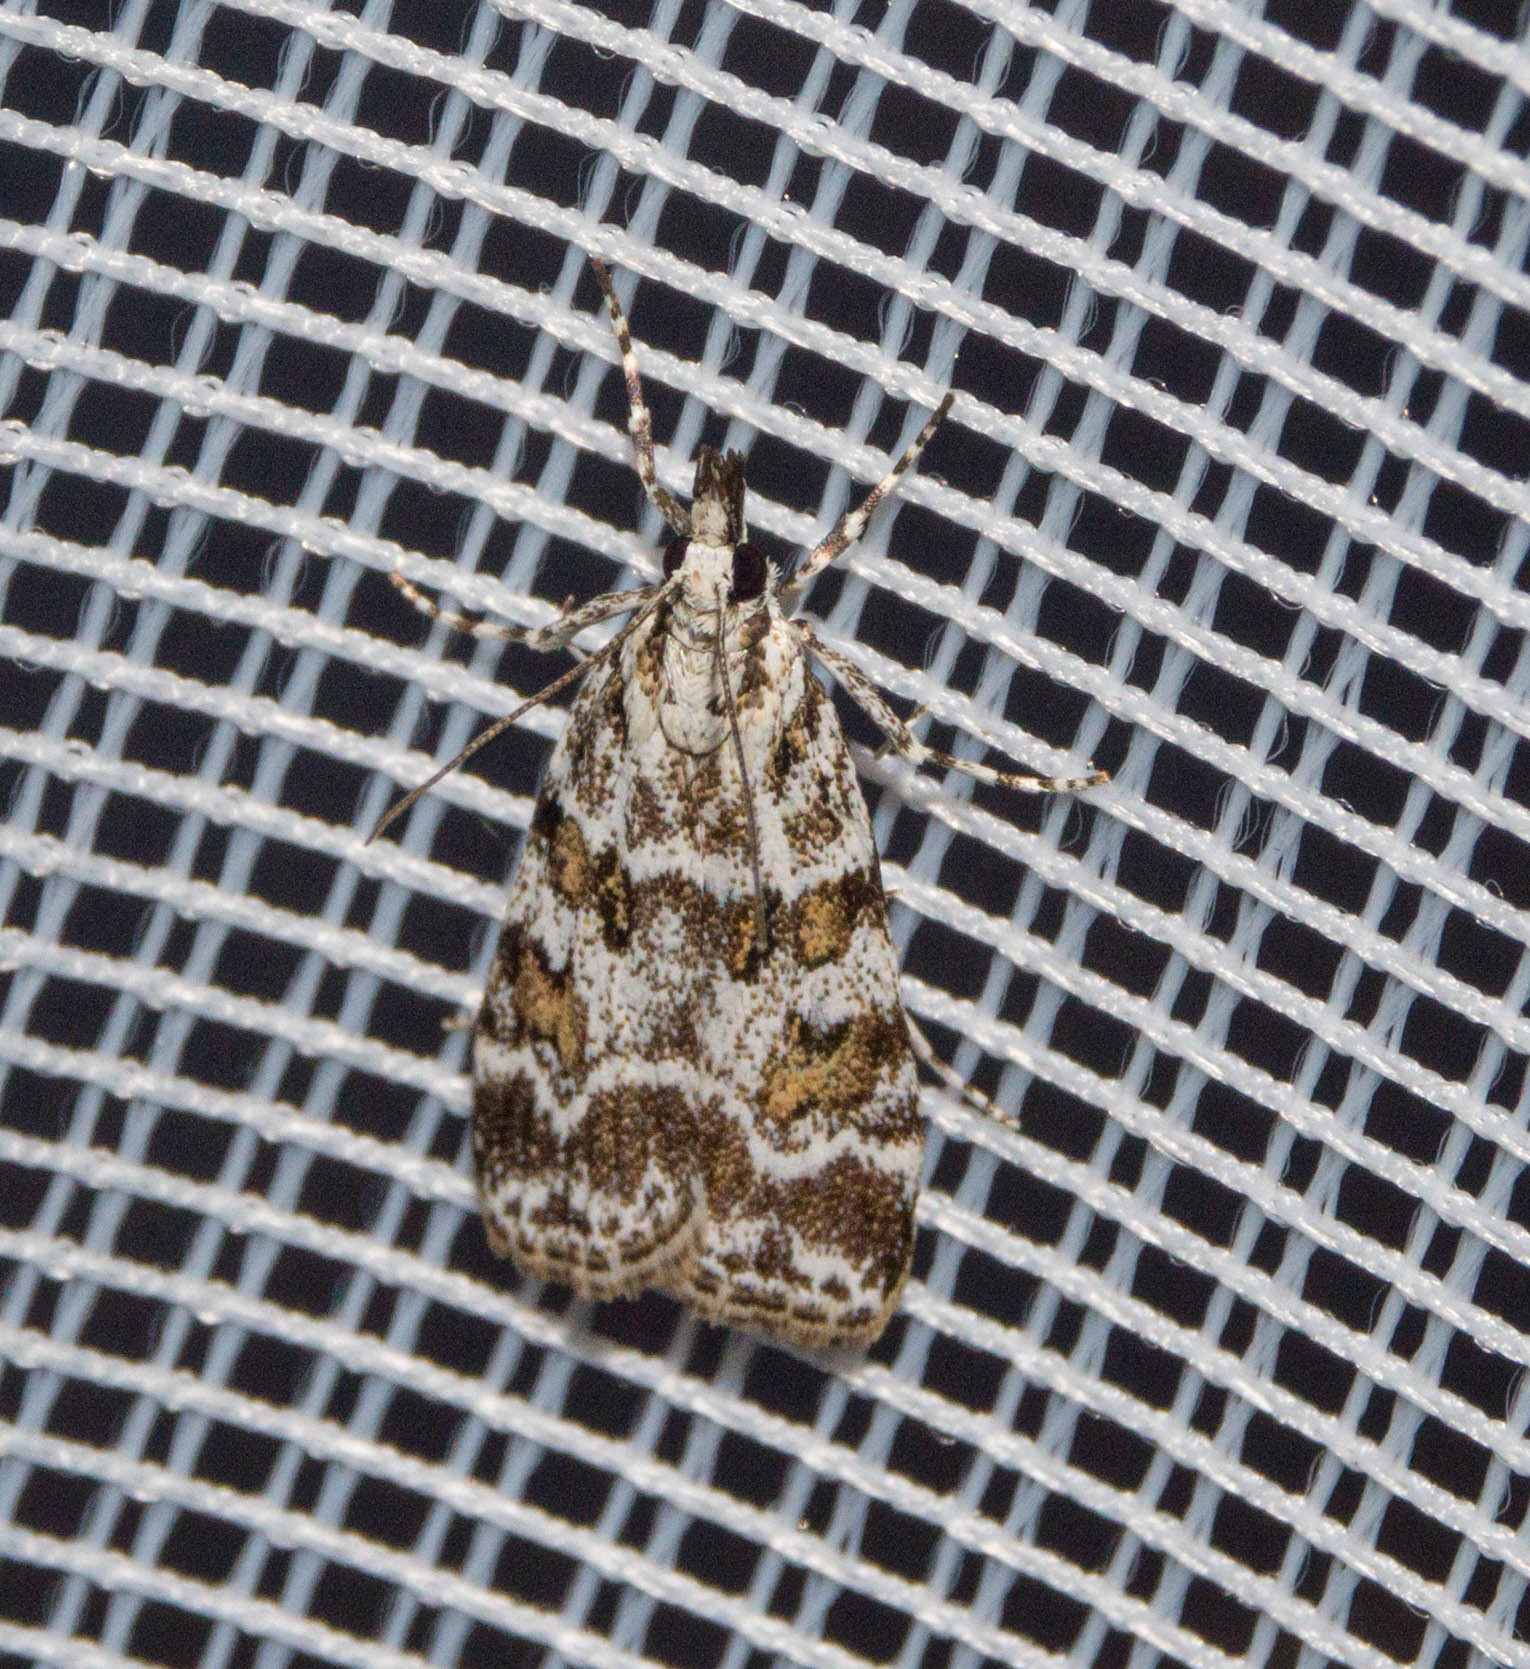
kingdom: Animalia
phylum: Arthropoda
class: Insecta
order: Lepidoptera
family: Crambidae
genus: Scoparia
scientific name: Scoparia pyralella
